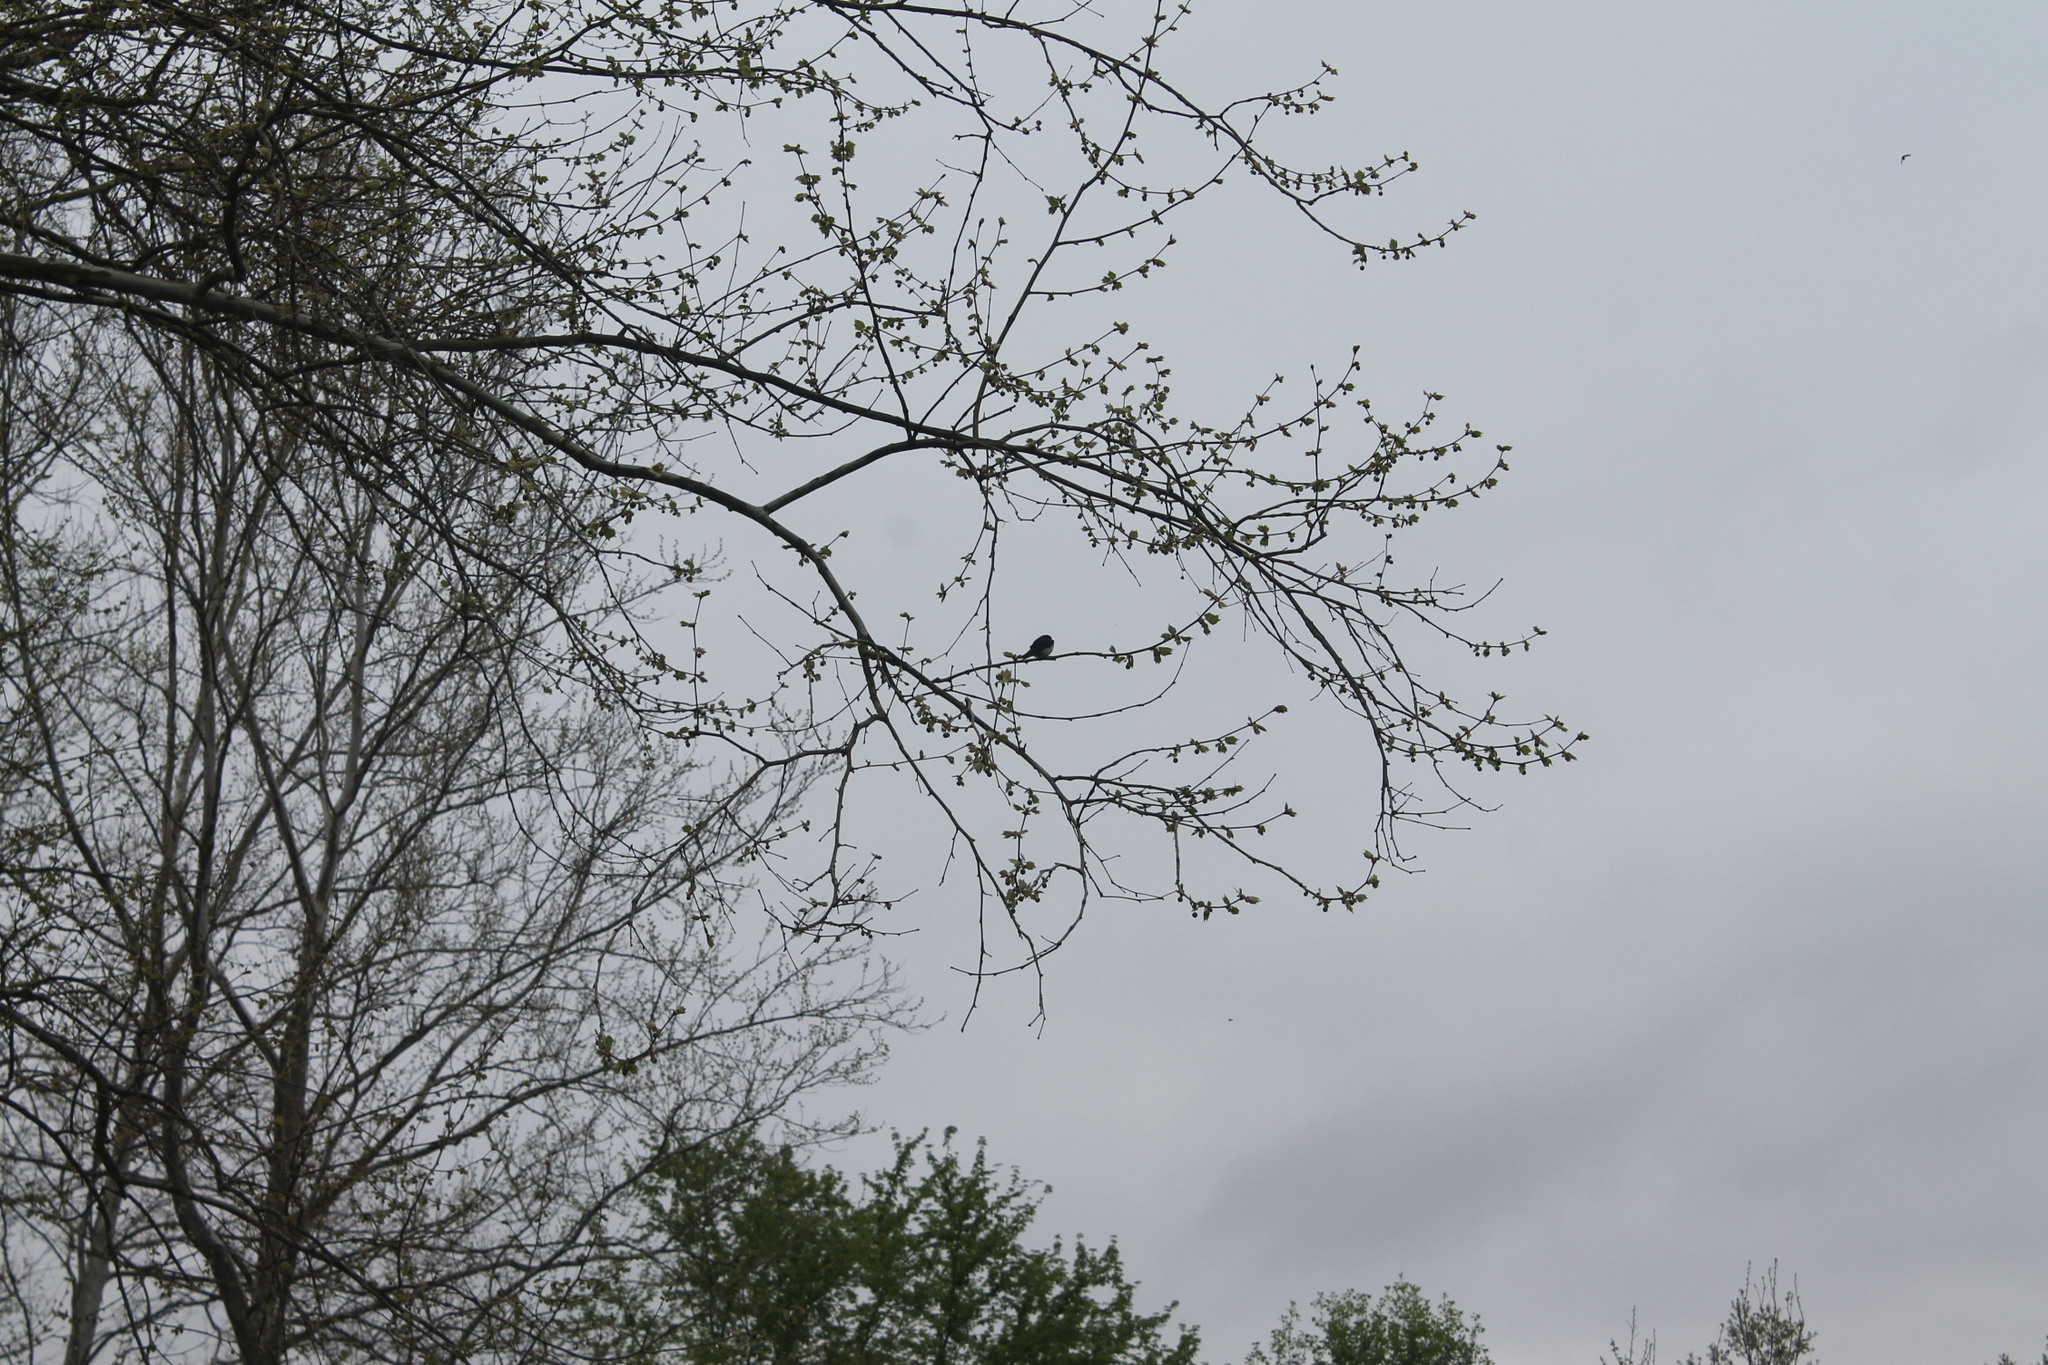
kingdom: Animalia
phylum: Chordata
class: Aves
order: Passeriformes
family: Hirundinidae
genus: Tachycineta
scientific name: Tachycineta bicolor
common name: Tree swallow
